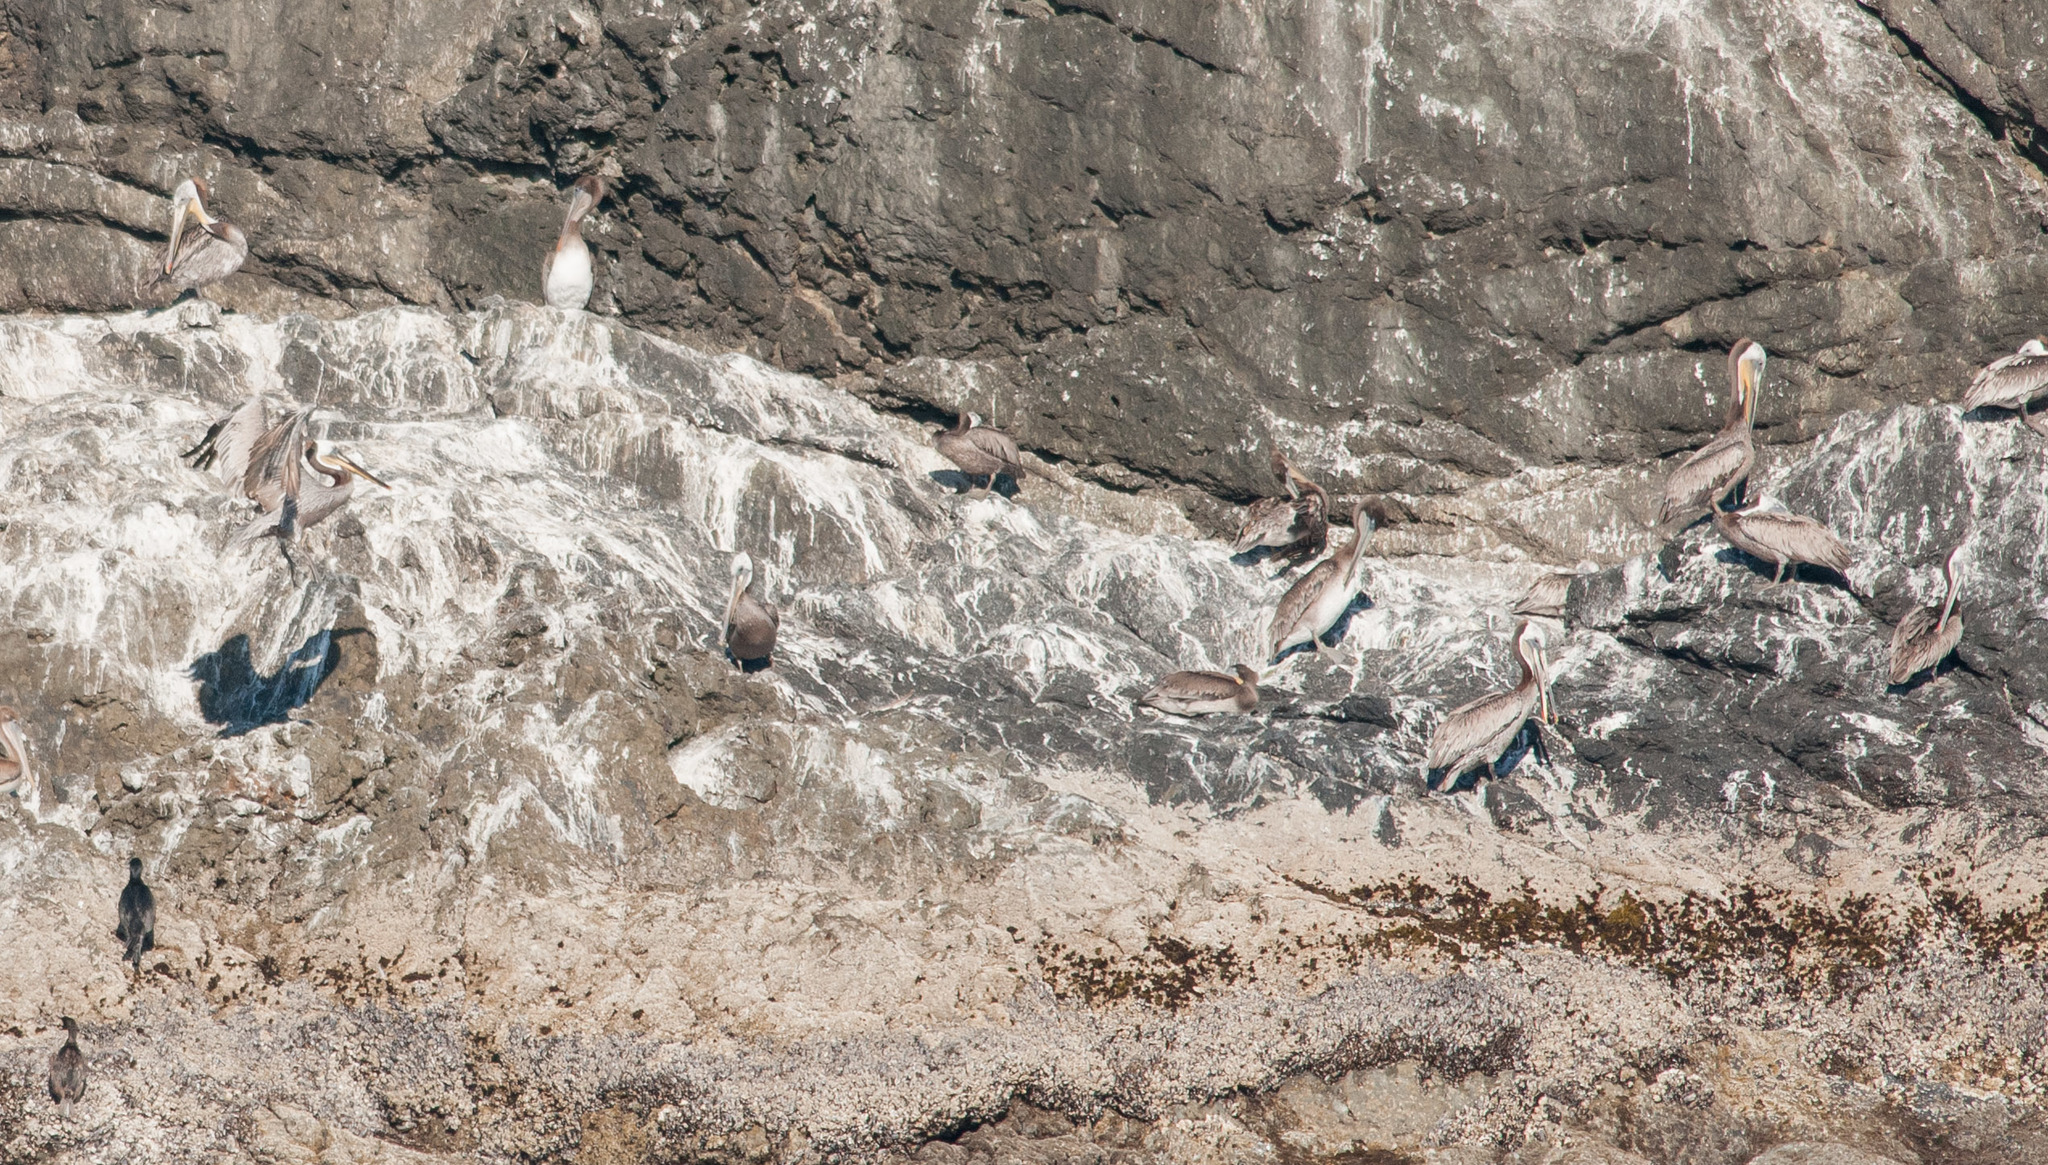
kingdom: Animalia
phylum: Chordata
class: Aves
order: Pelecaniformes
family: Pelecanidae
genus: Pelecanus
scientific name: Pelecanus occidentalis
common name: Brown pelican
